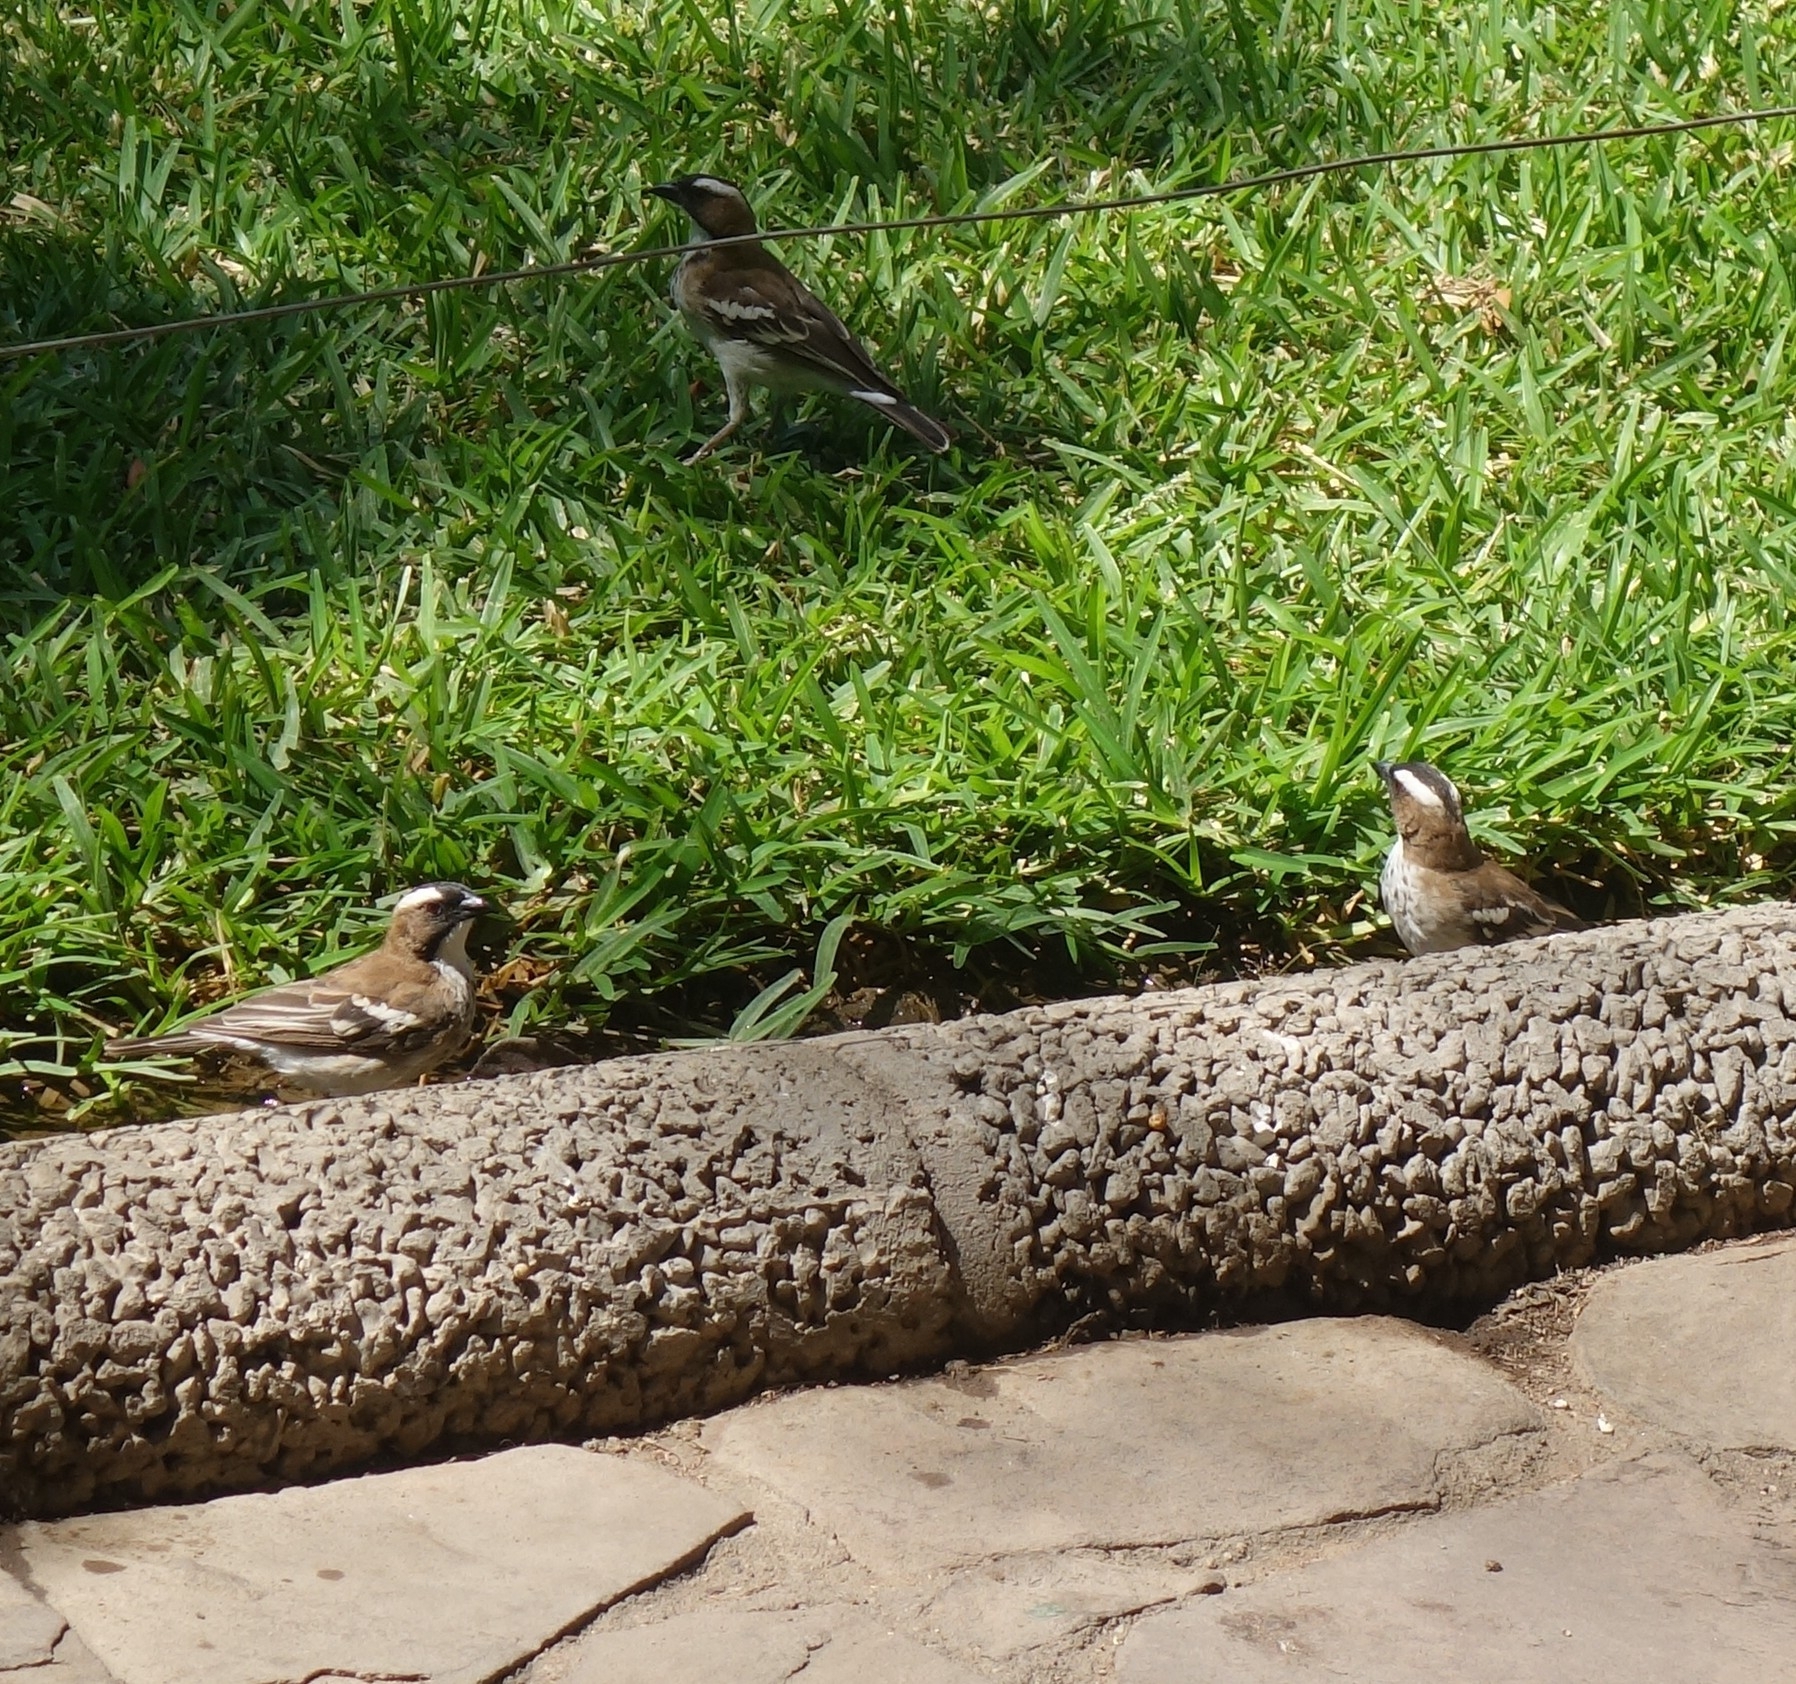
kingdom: Animalia
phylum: Chordata
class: Aves
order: Passeriformes
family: Passeridae
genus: Plocepasser
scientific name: Plocepasser mahali
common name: White-browed sparrow-weaver
